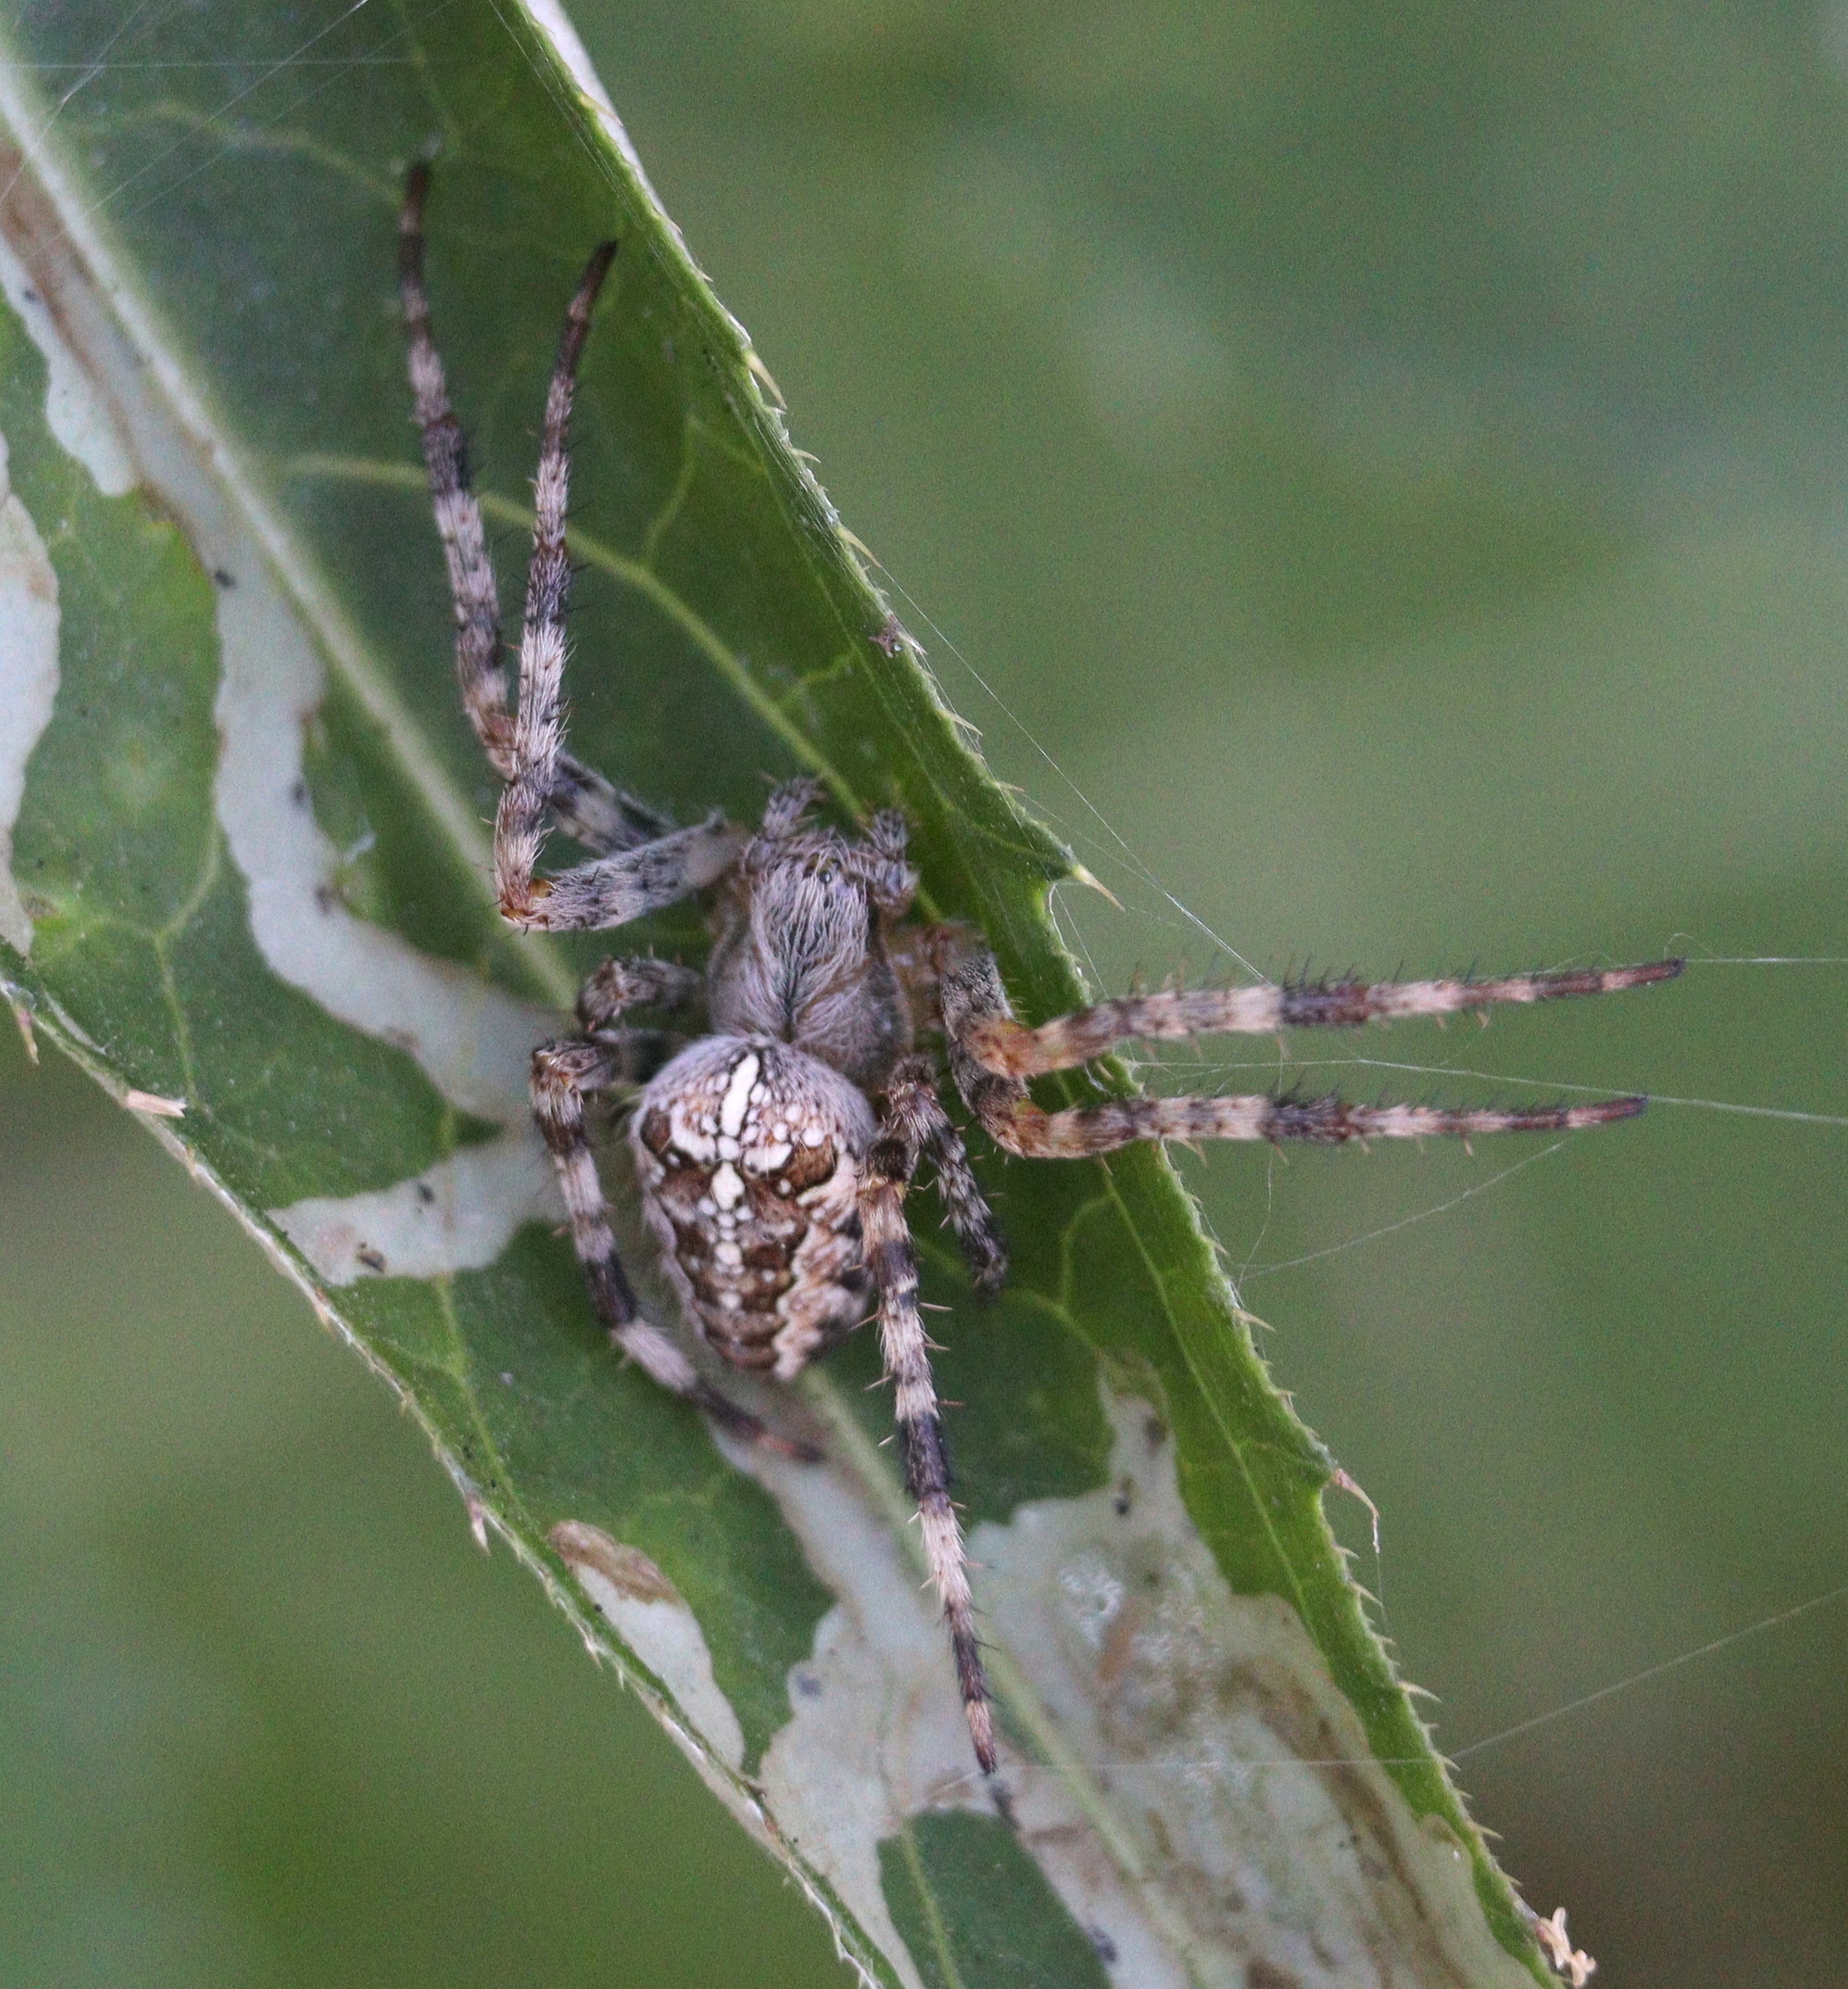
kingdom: Animalia
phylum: Arthropoda
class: Arachnida
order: Araneae
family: Araneidae
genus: Araneus
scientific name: Araneus diadematus
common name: Cross orbweaver
